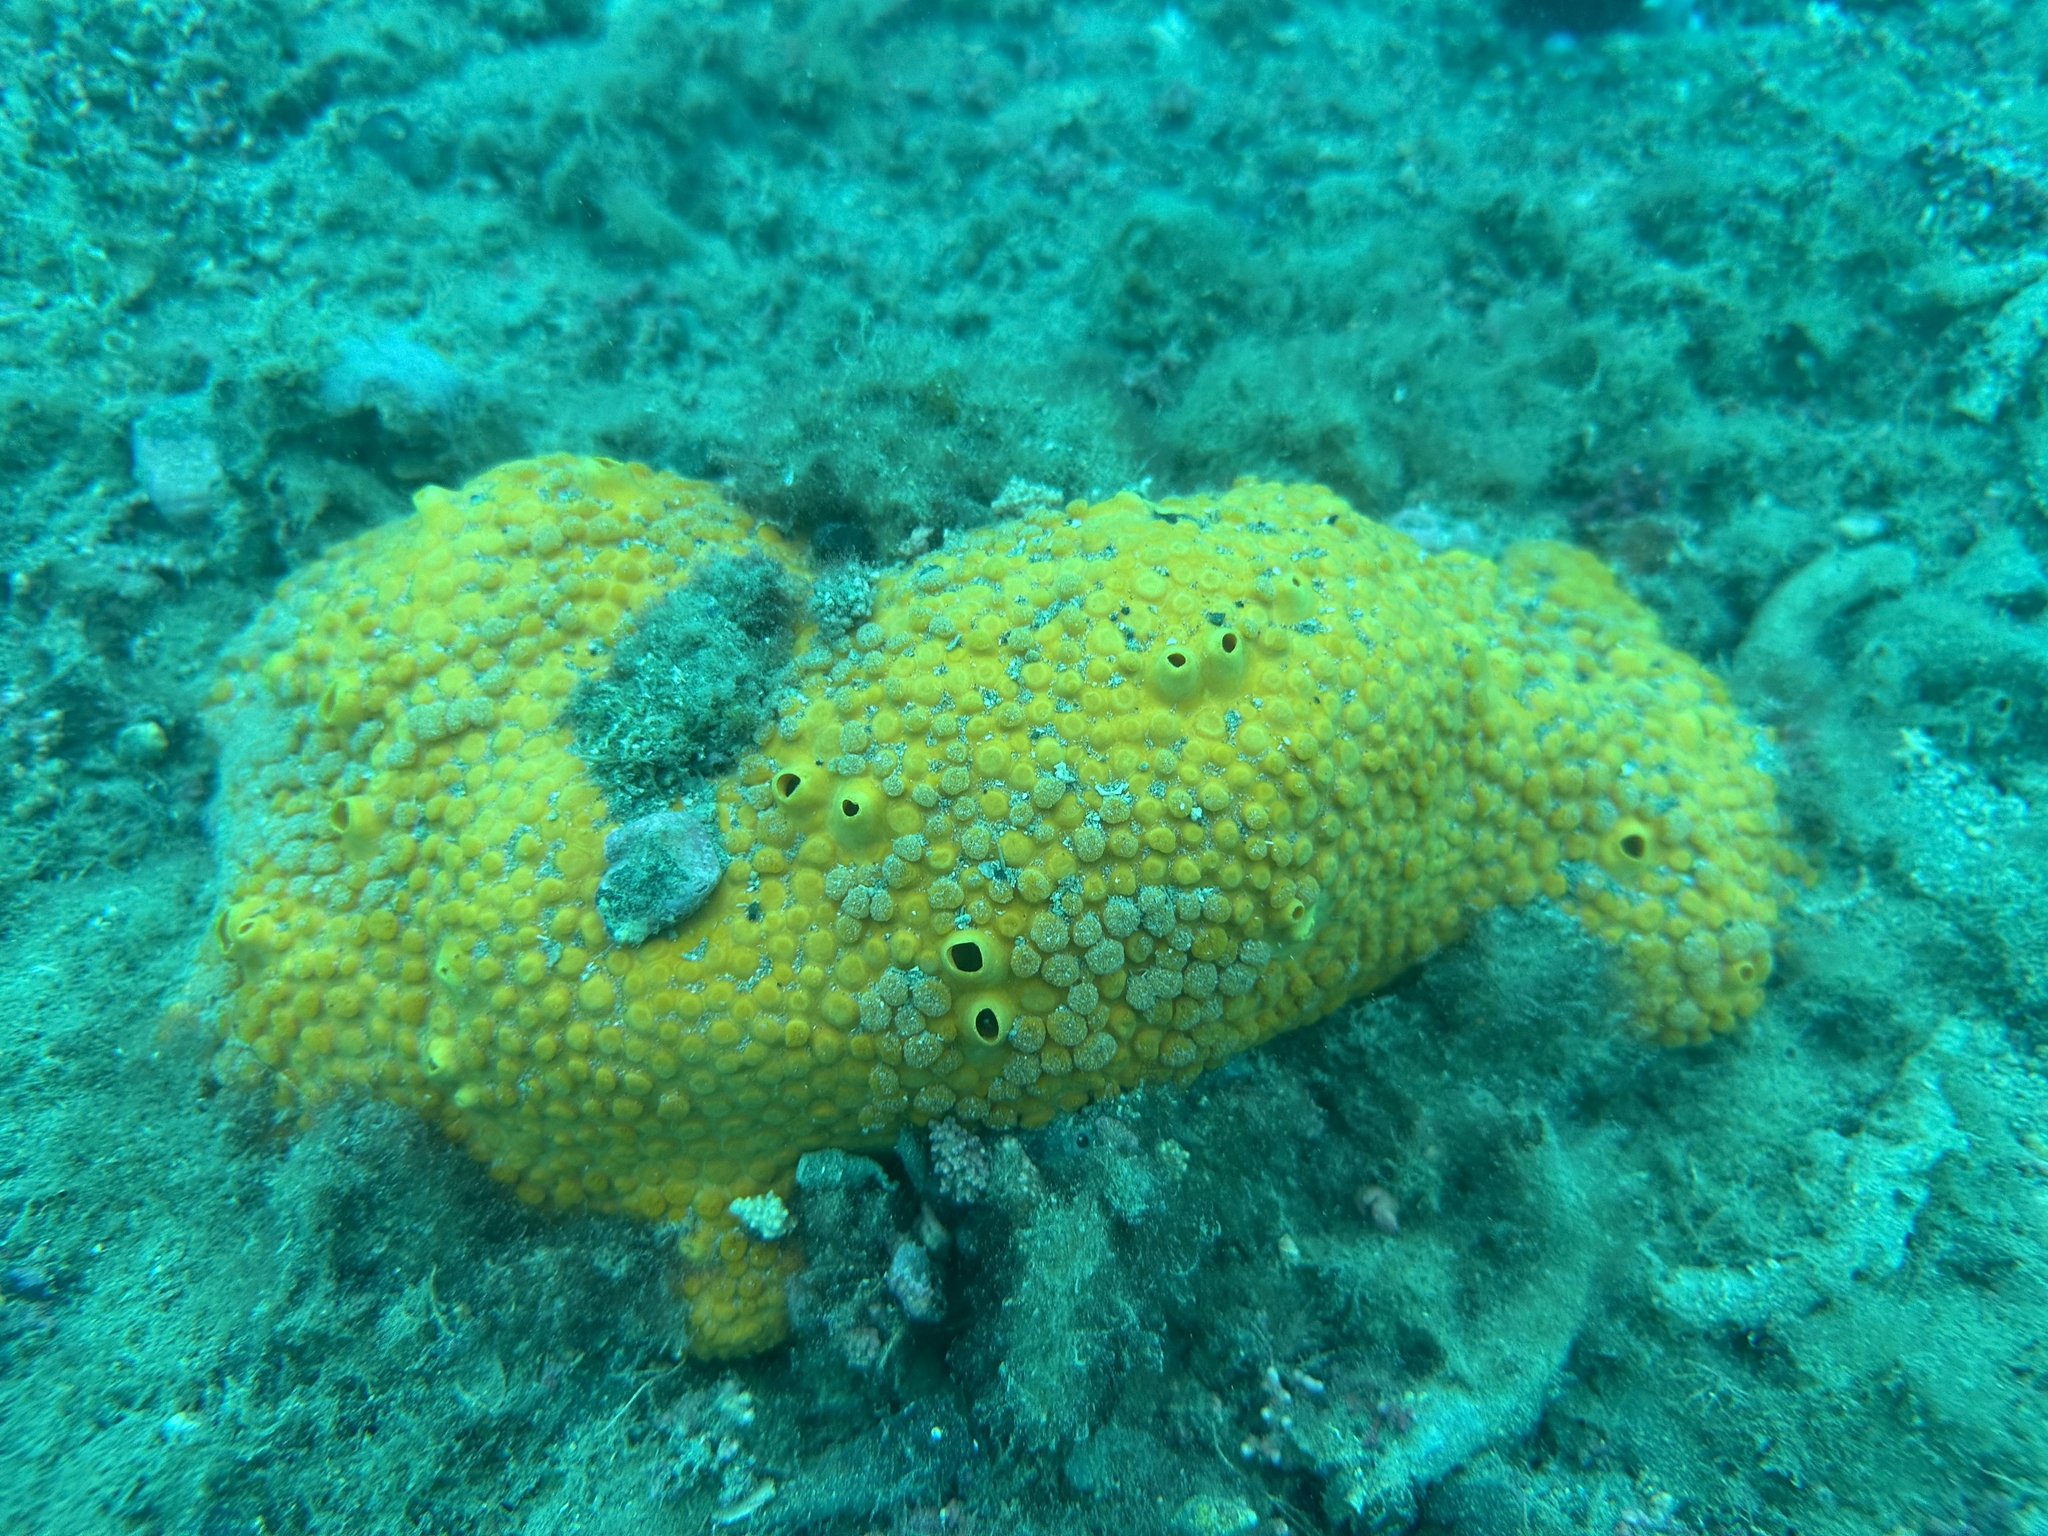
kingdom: Animalia
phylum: Porifera
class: Demospongiae
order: Clionaida
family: Clionaidae
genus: Cliona
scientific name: Cliona celata
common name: Boring sponge
